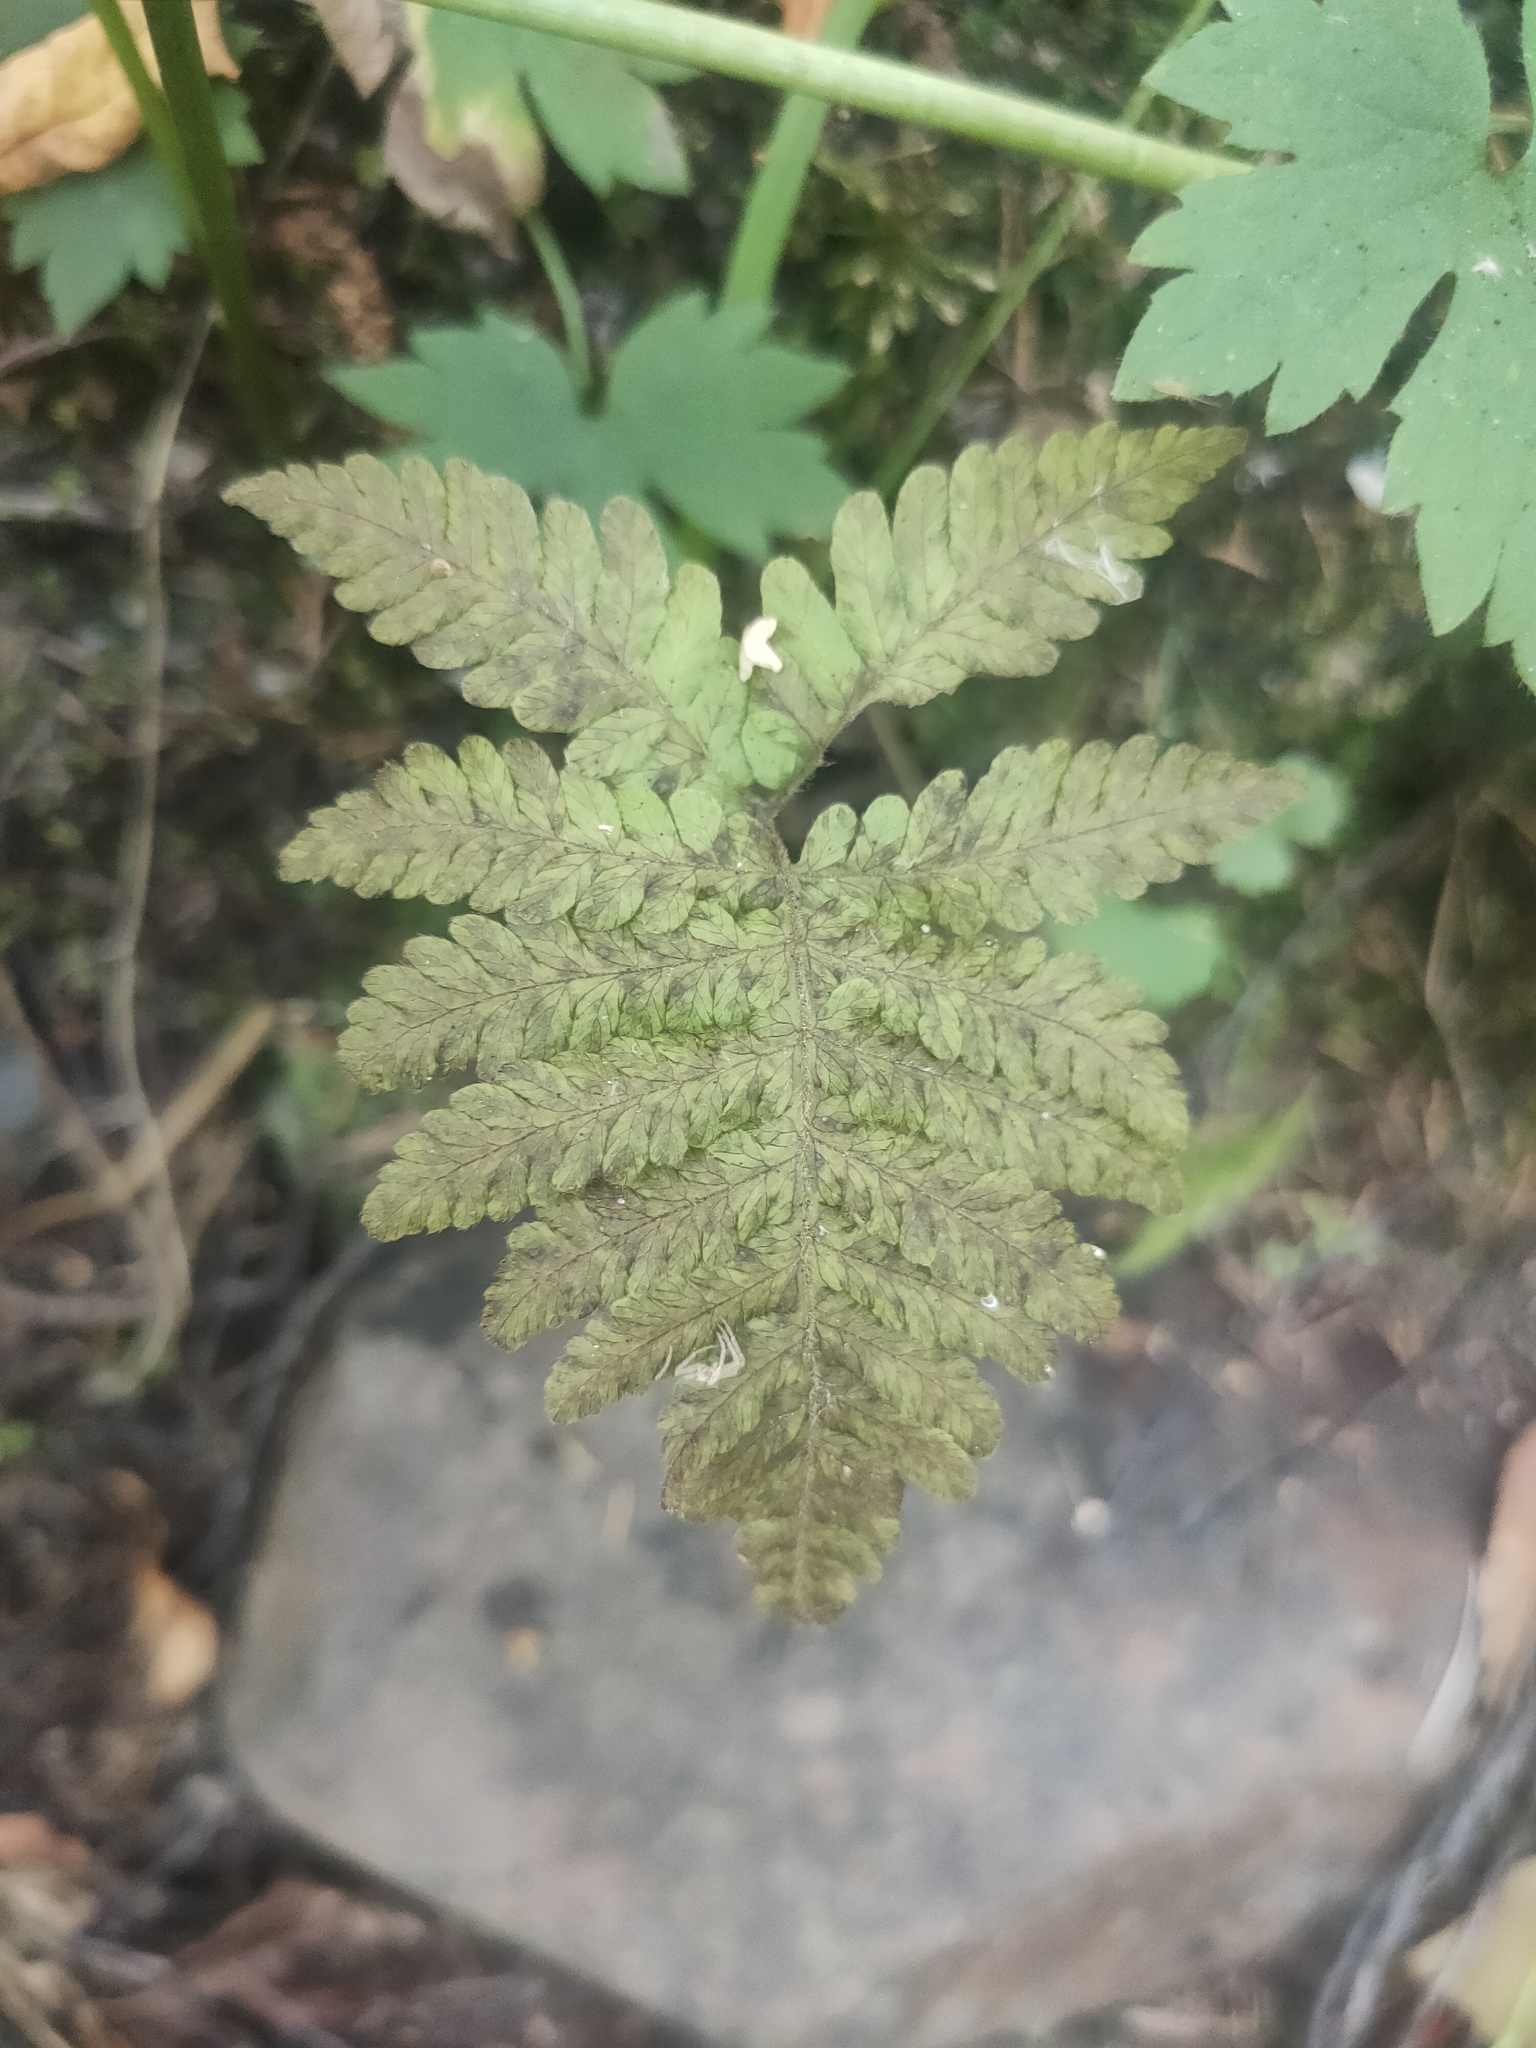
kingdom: Plantae
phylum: Tracheophyta
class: Polypodiopsida
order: Polypodiales
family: Thelypteridaceae
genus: Phegopteris
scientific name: Phegopteris connectilis
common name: Beech fern
